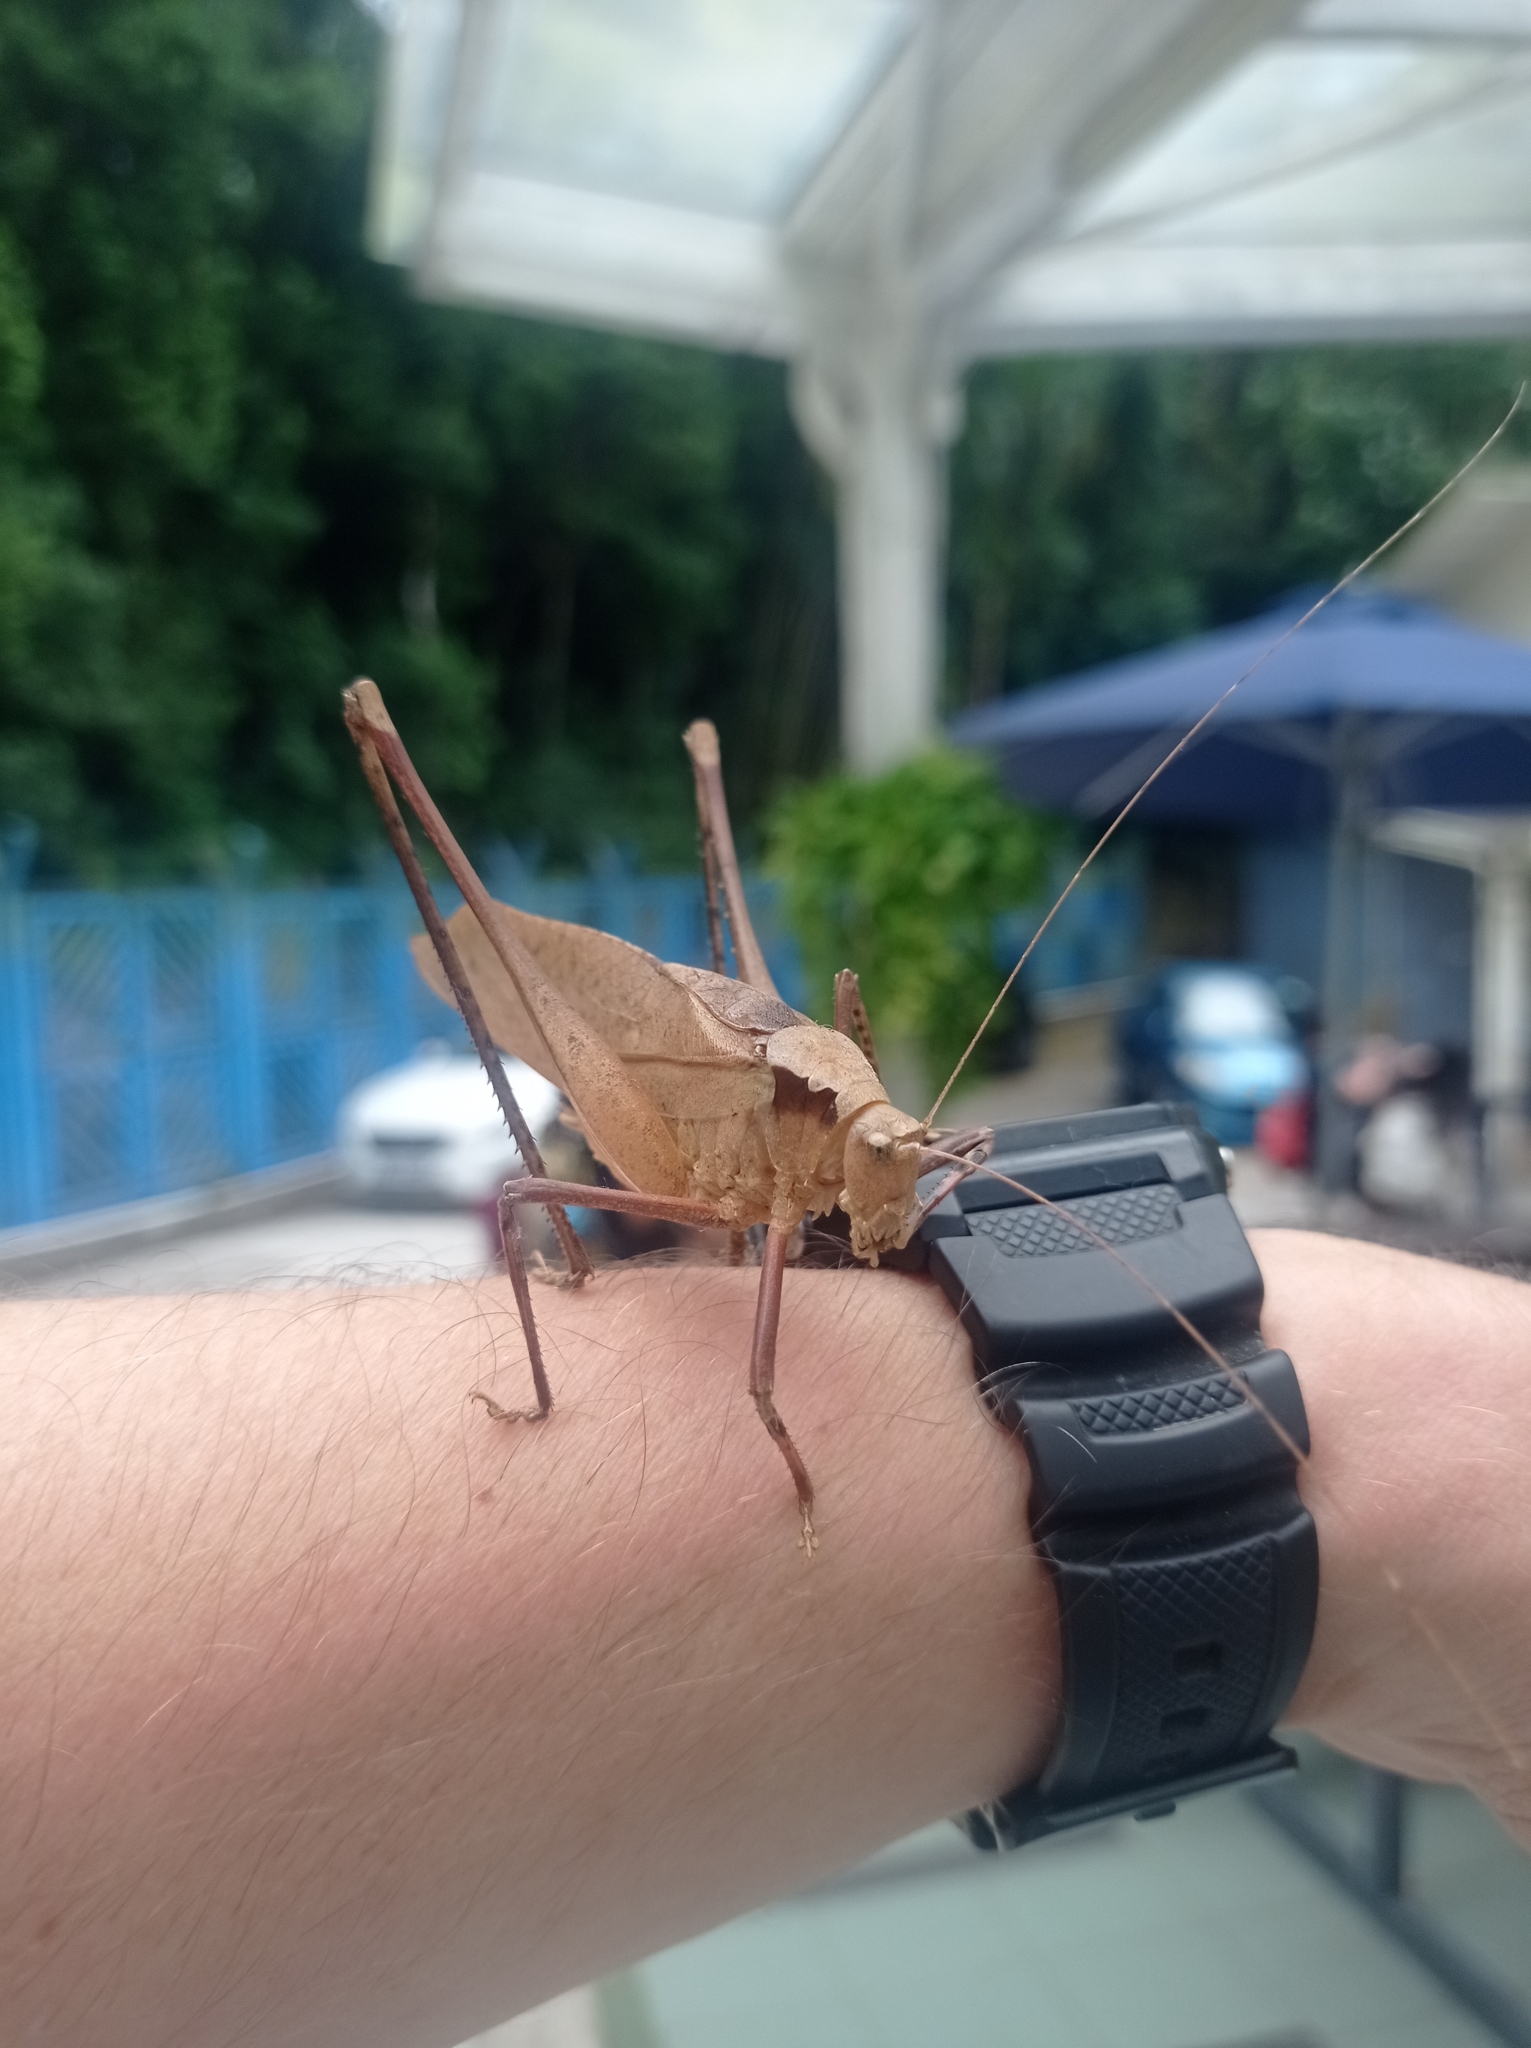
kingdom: Animalia
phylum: Arthropoda
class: Insecta
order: Orthoptera
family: Tettigoniidae
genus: Mecopoda
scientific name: Mecopoda elongata
